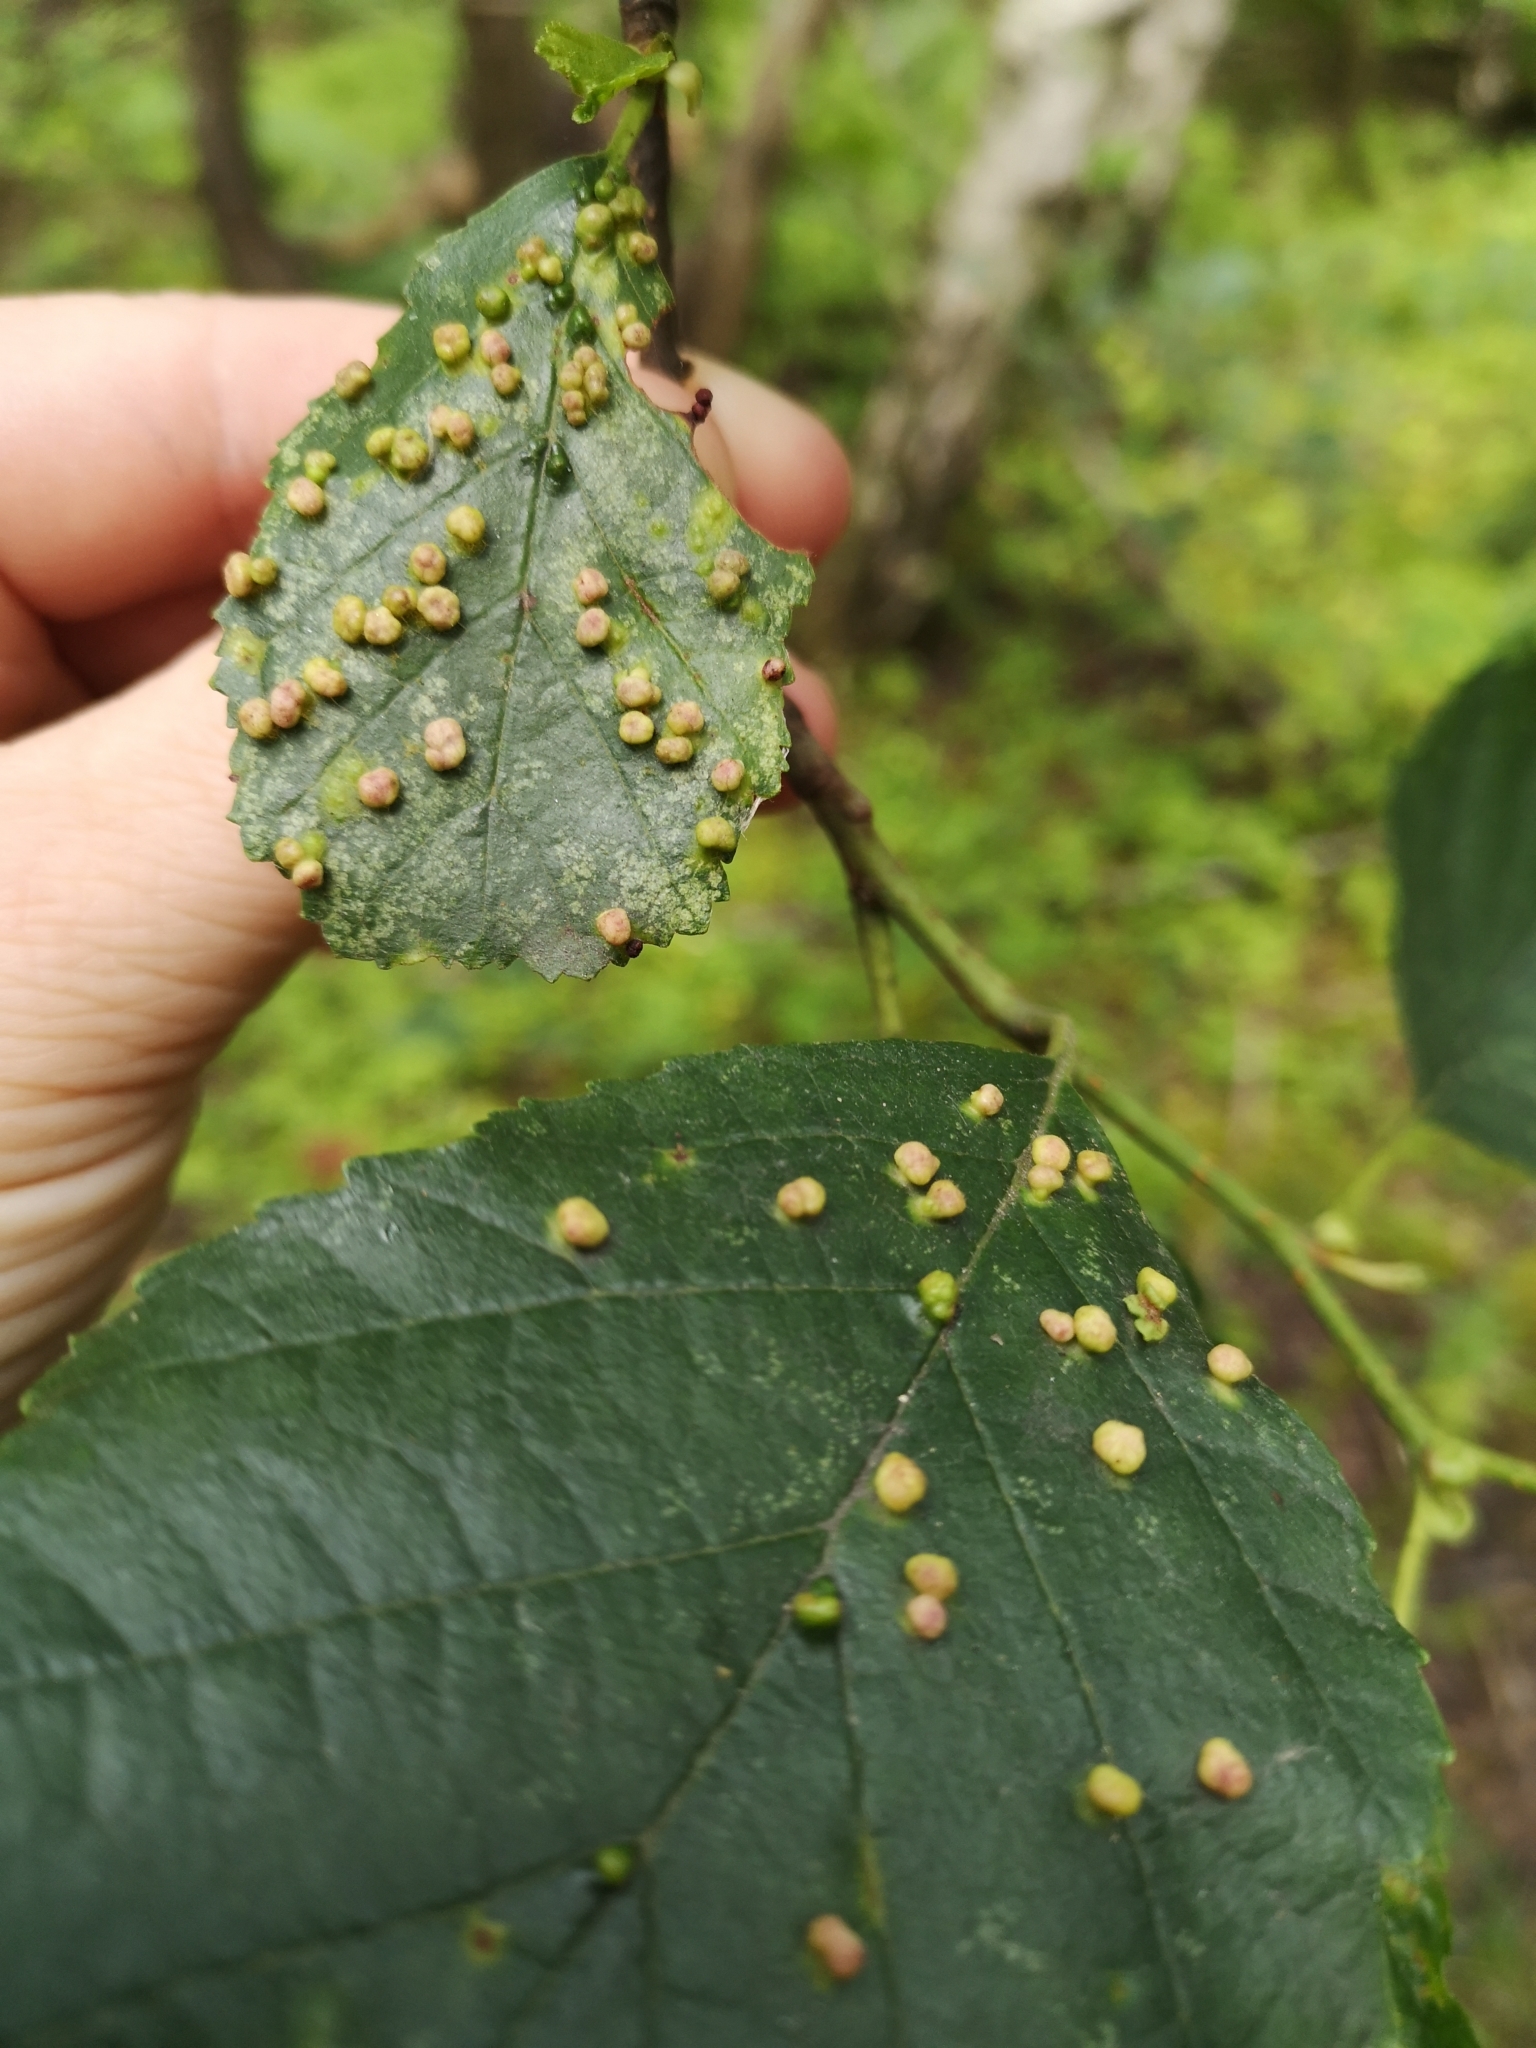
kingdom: Animalia
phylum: Arthropoda
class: Arachnida
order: Trombidiformes
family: Eriophyidae
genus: Eriophyes
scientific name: Eriophyes laevis
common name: Alder leaf gall mite
